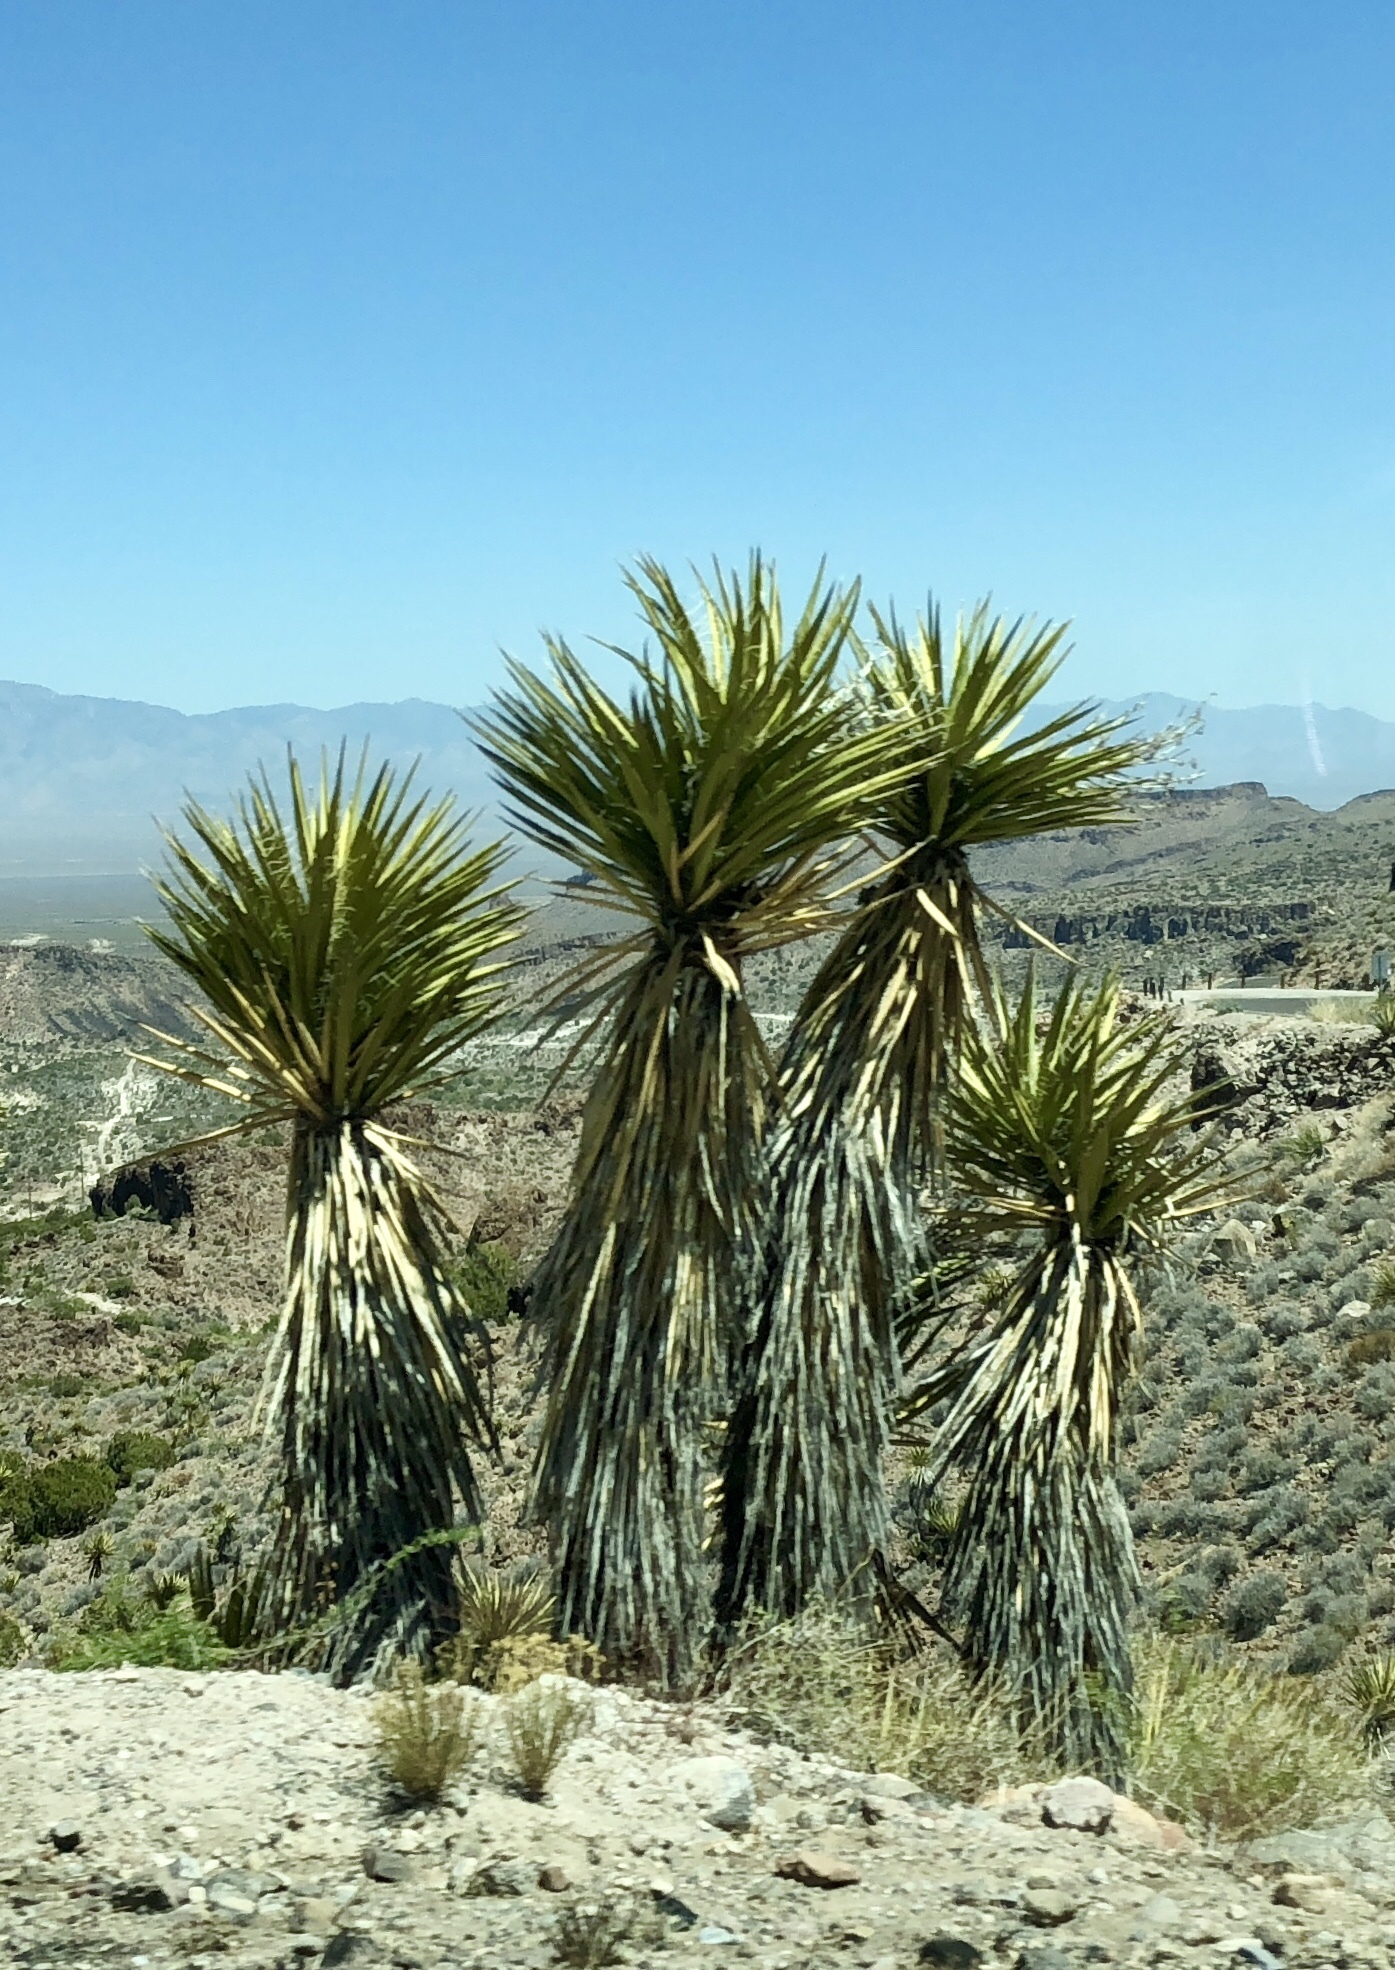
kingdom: Plantae
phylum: Tracheophyta
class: Liliopsida
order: Asparagales
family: Asparagaceae
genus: Yucca
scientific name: Yucca schidigera
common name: Mojave yucca
